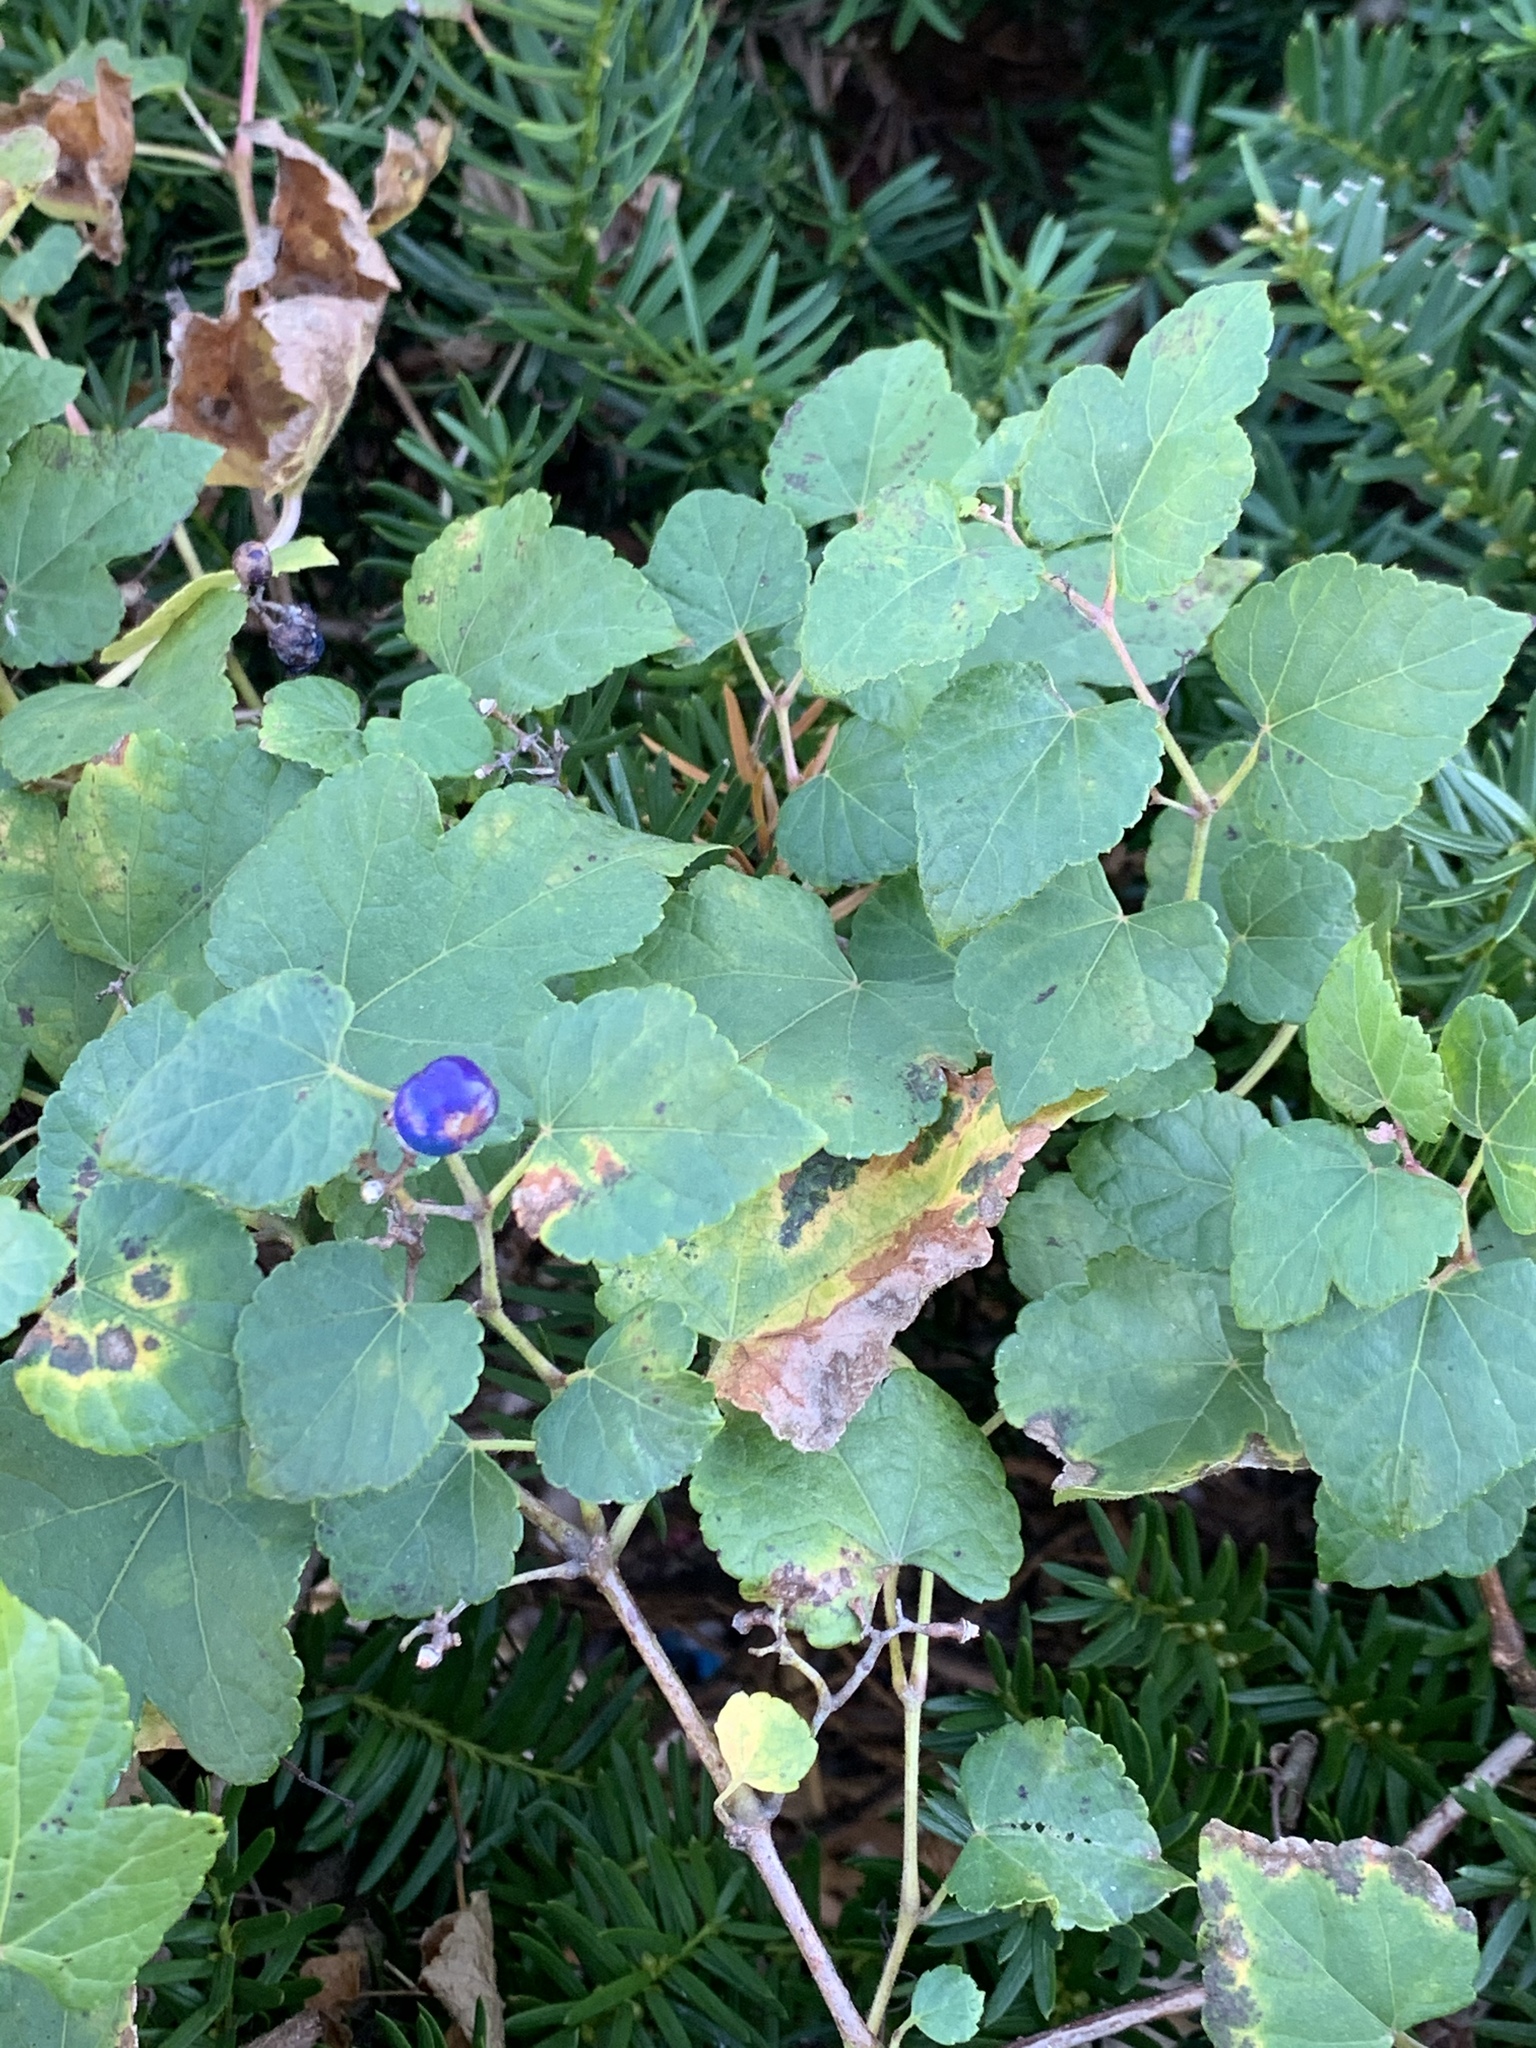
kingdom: Plantae
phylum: Tracheophyta
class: Magnoliopsida
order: Vitales
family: Vitaceae
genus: Ampelopsis
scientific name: Ampelopsis glandulosa
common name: Amur peppervine
